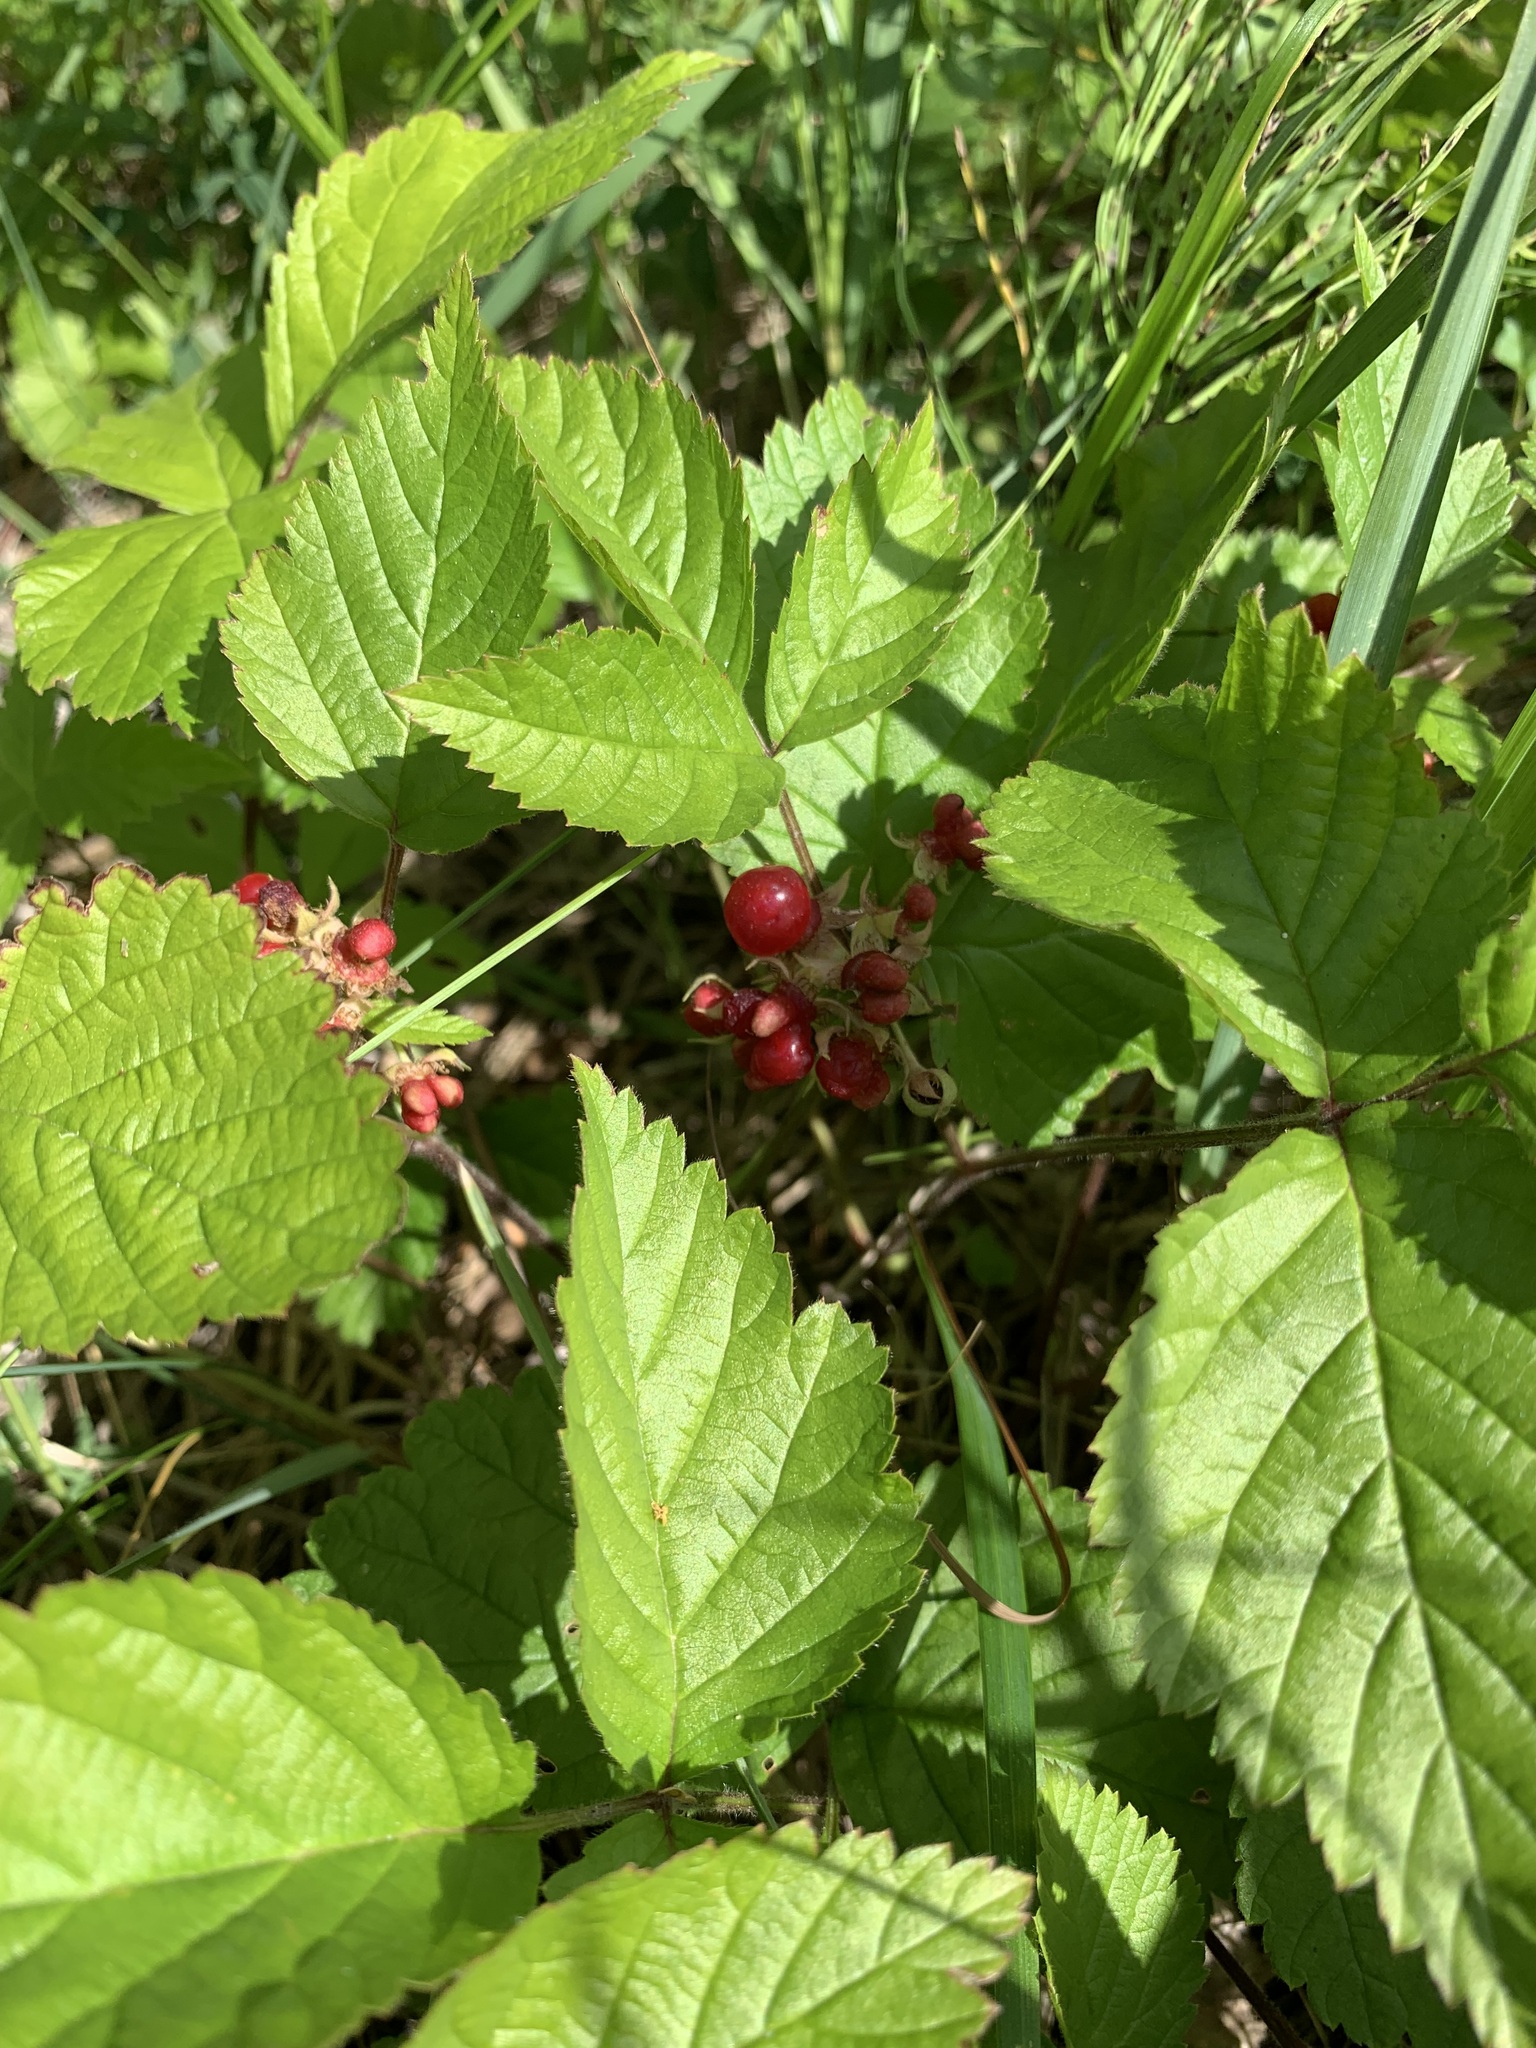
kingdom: Plantae
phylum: Tracheophyta
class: Magnoliopsida
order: Rosales
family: Rosaceae
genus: Rubus
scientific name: Rubus saxatilis
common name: Stone bramble
